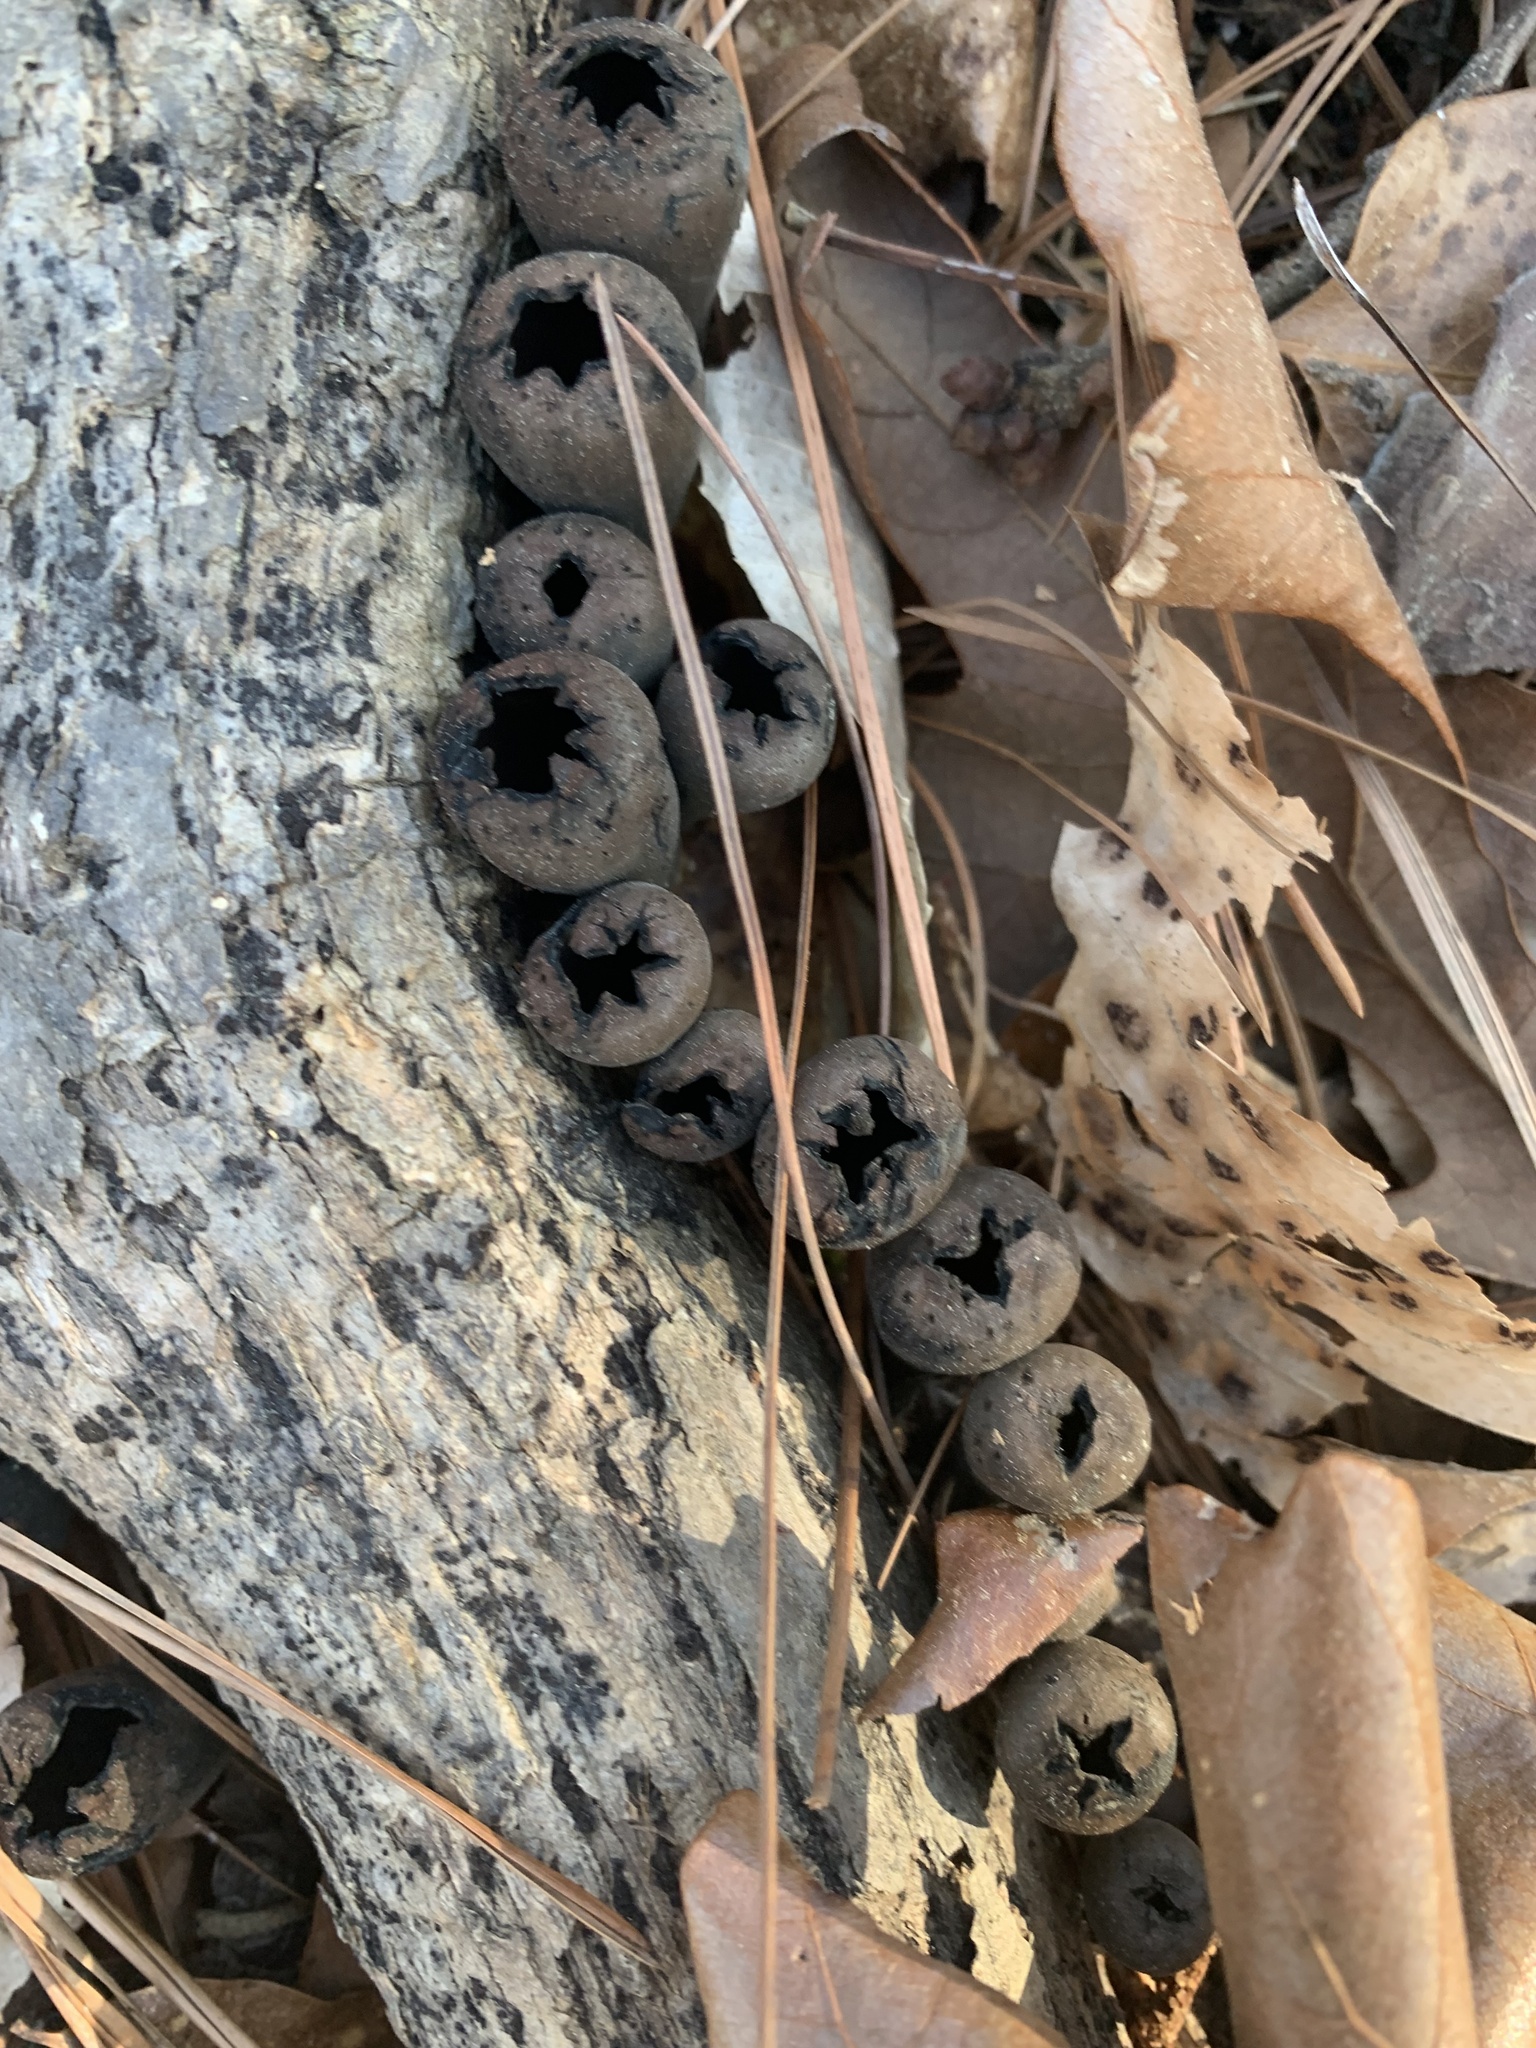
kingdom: Fungi
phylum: Ascomycota
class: Pezizomycetes
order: Pezizales
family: Sarcosomataceae
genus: Urnula
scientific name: Urnula craterium
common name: Devil's urn
